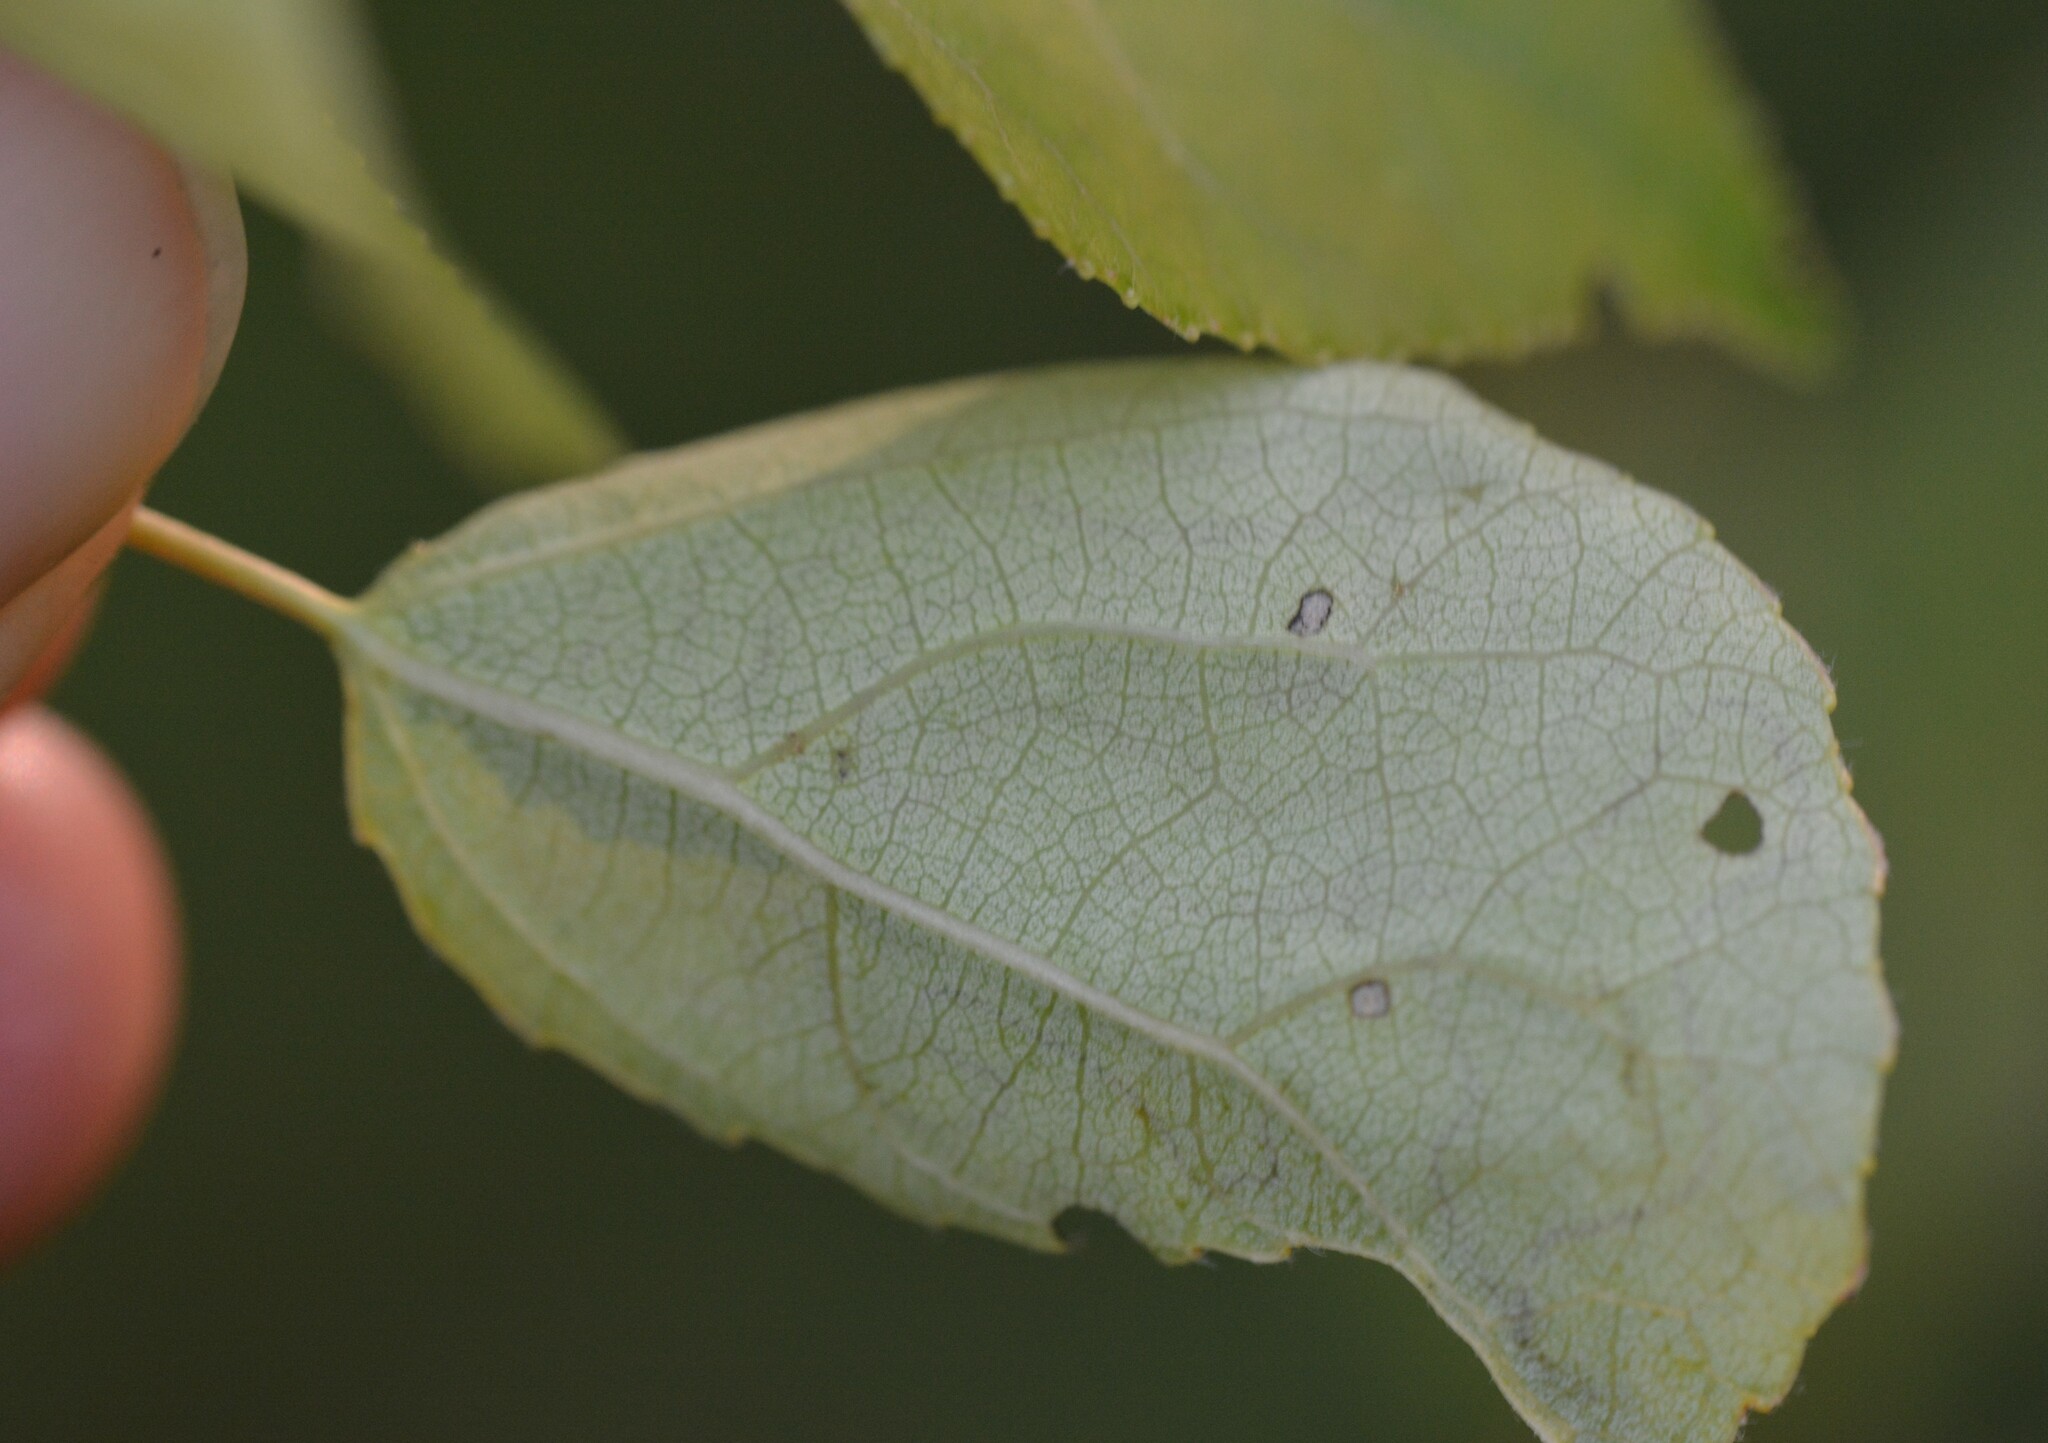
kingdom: Animalia
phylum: Arthropoda
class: Insecta
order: Lepidoptera
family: Gracillariidae
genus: Phyllocnistis
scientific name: Phyllocnistis populiella
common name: Aspen serpentine leafminer moth
